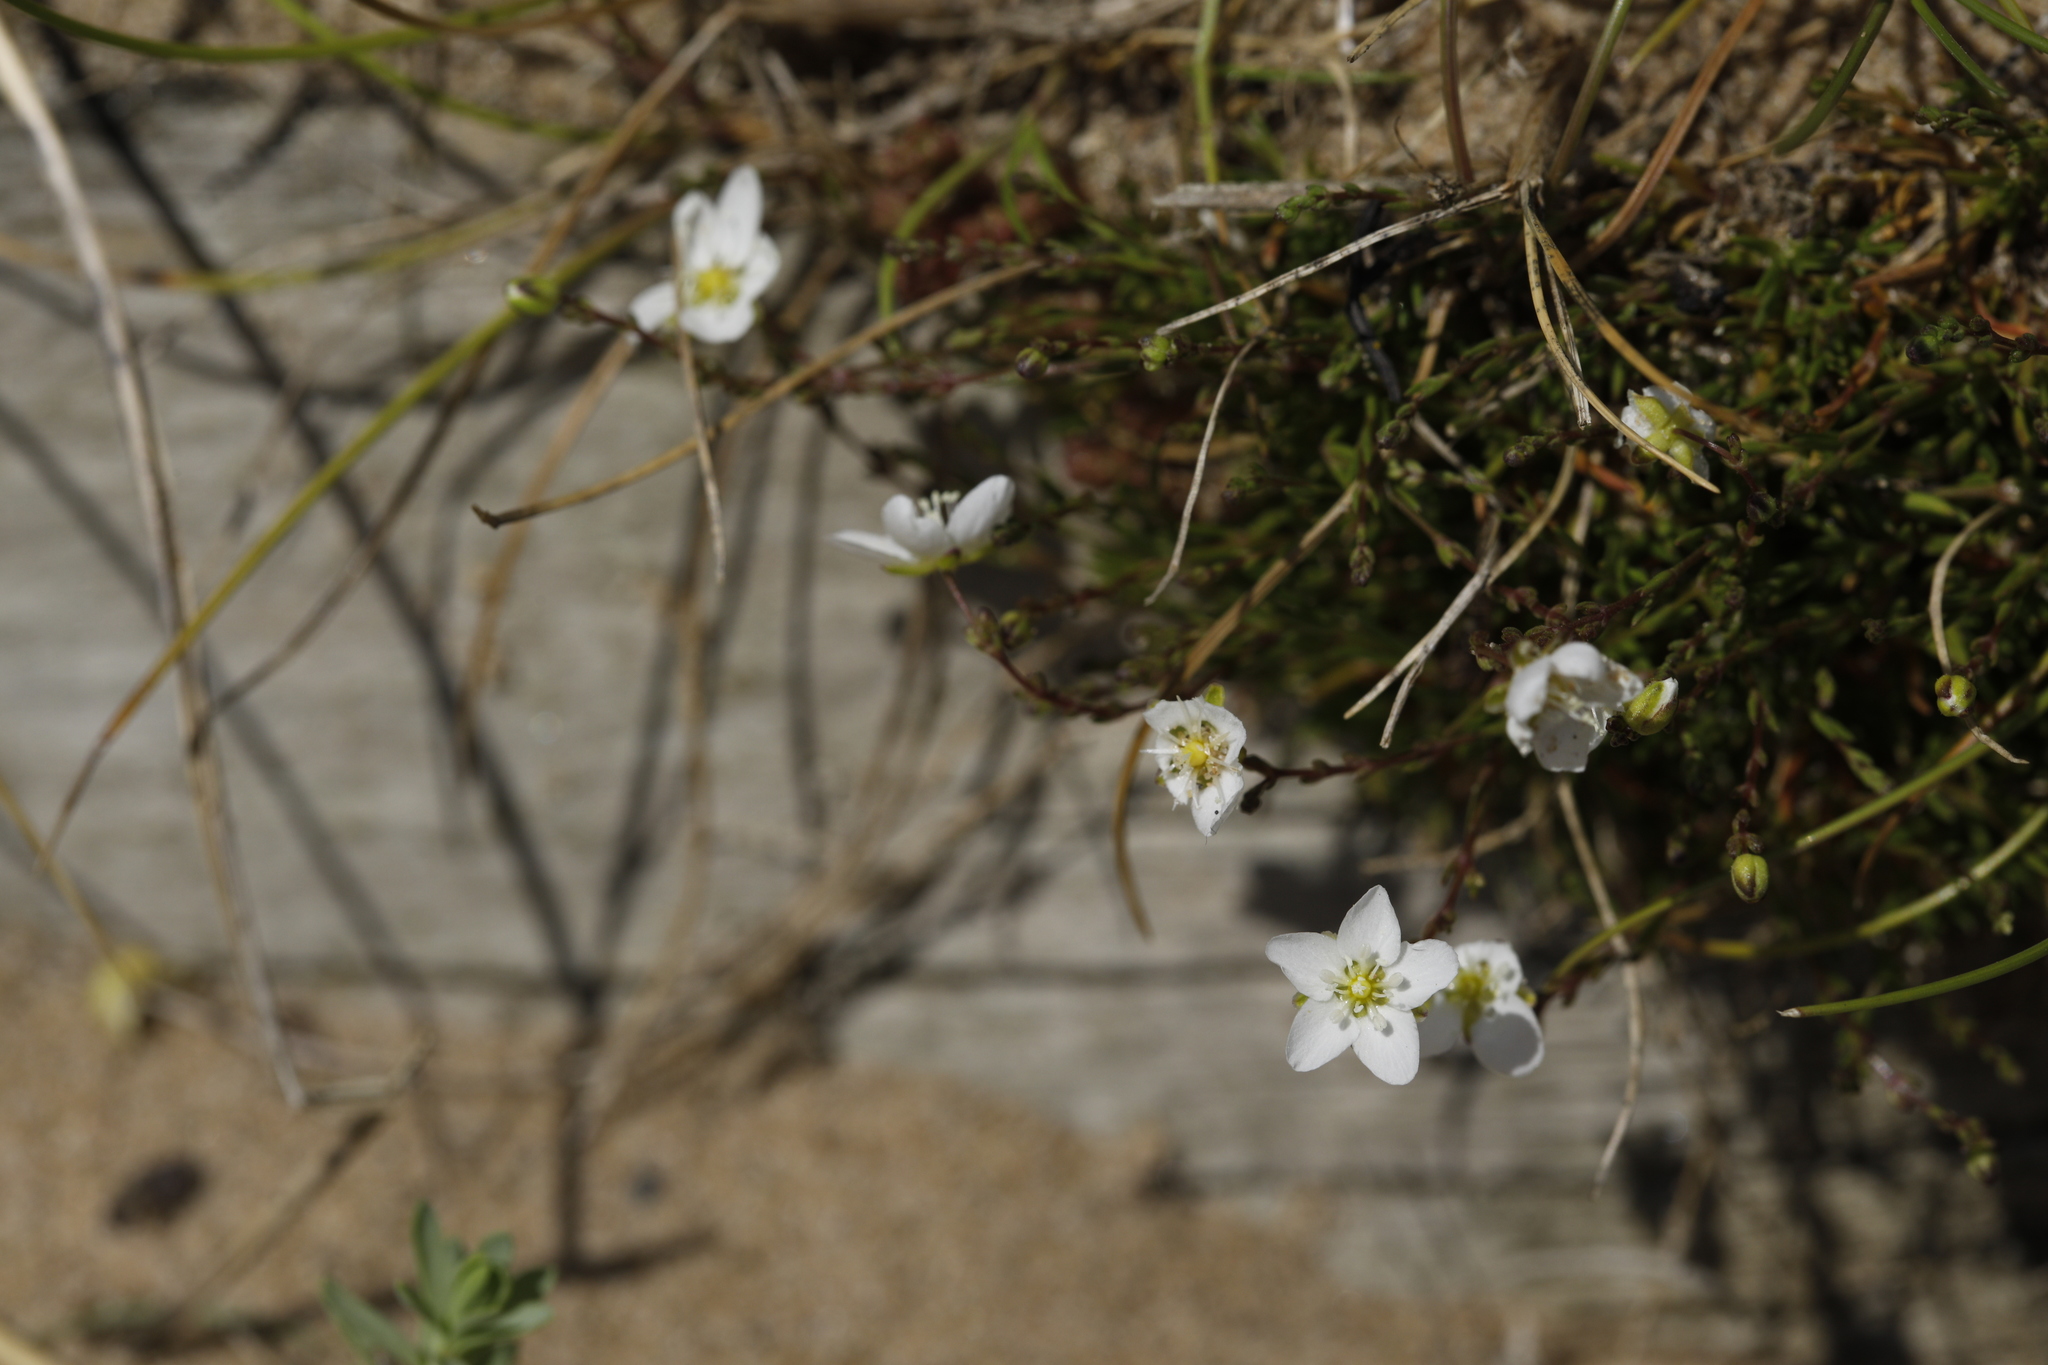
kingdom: Plantae
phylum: Tracheophyta
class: Magnoliopsida
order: Caryophyllales
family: Caryophyllaceae
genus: Sagina
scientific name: Sagina nodosa
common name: Knotted pearlwort
